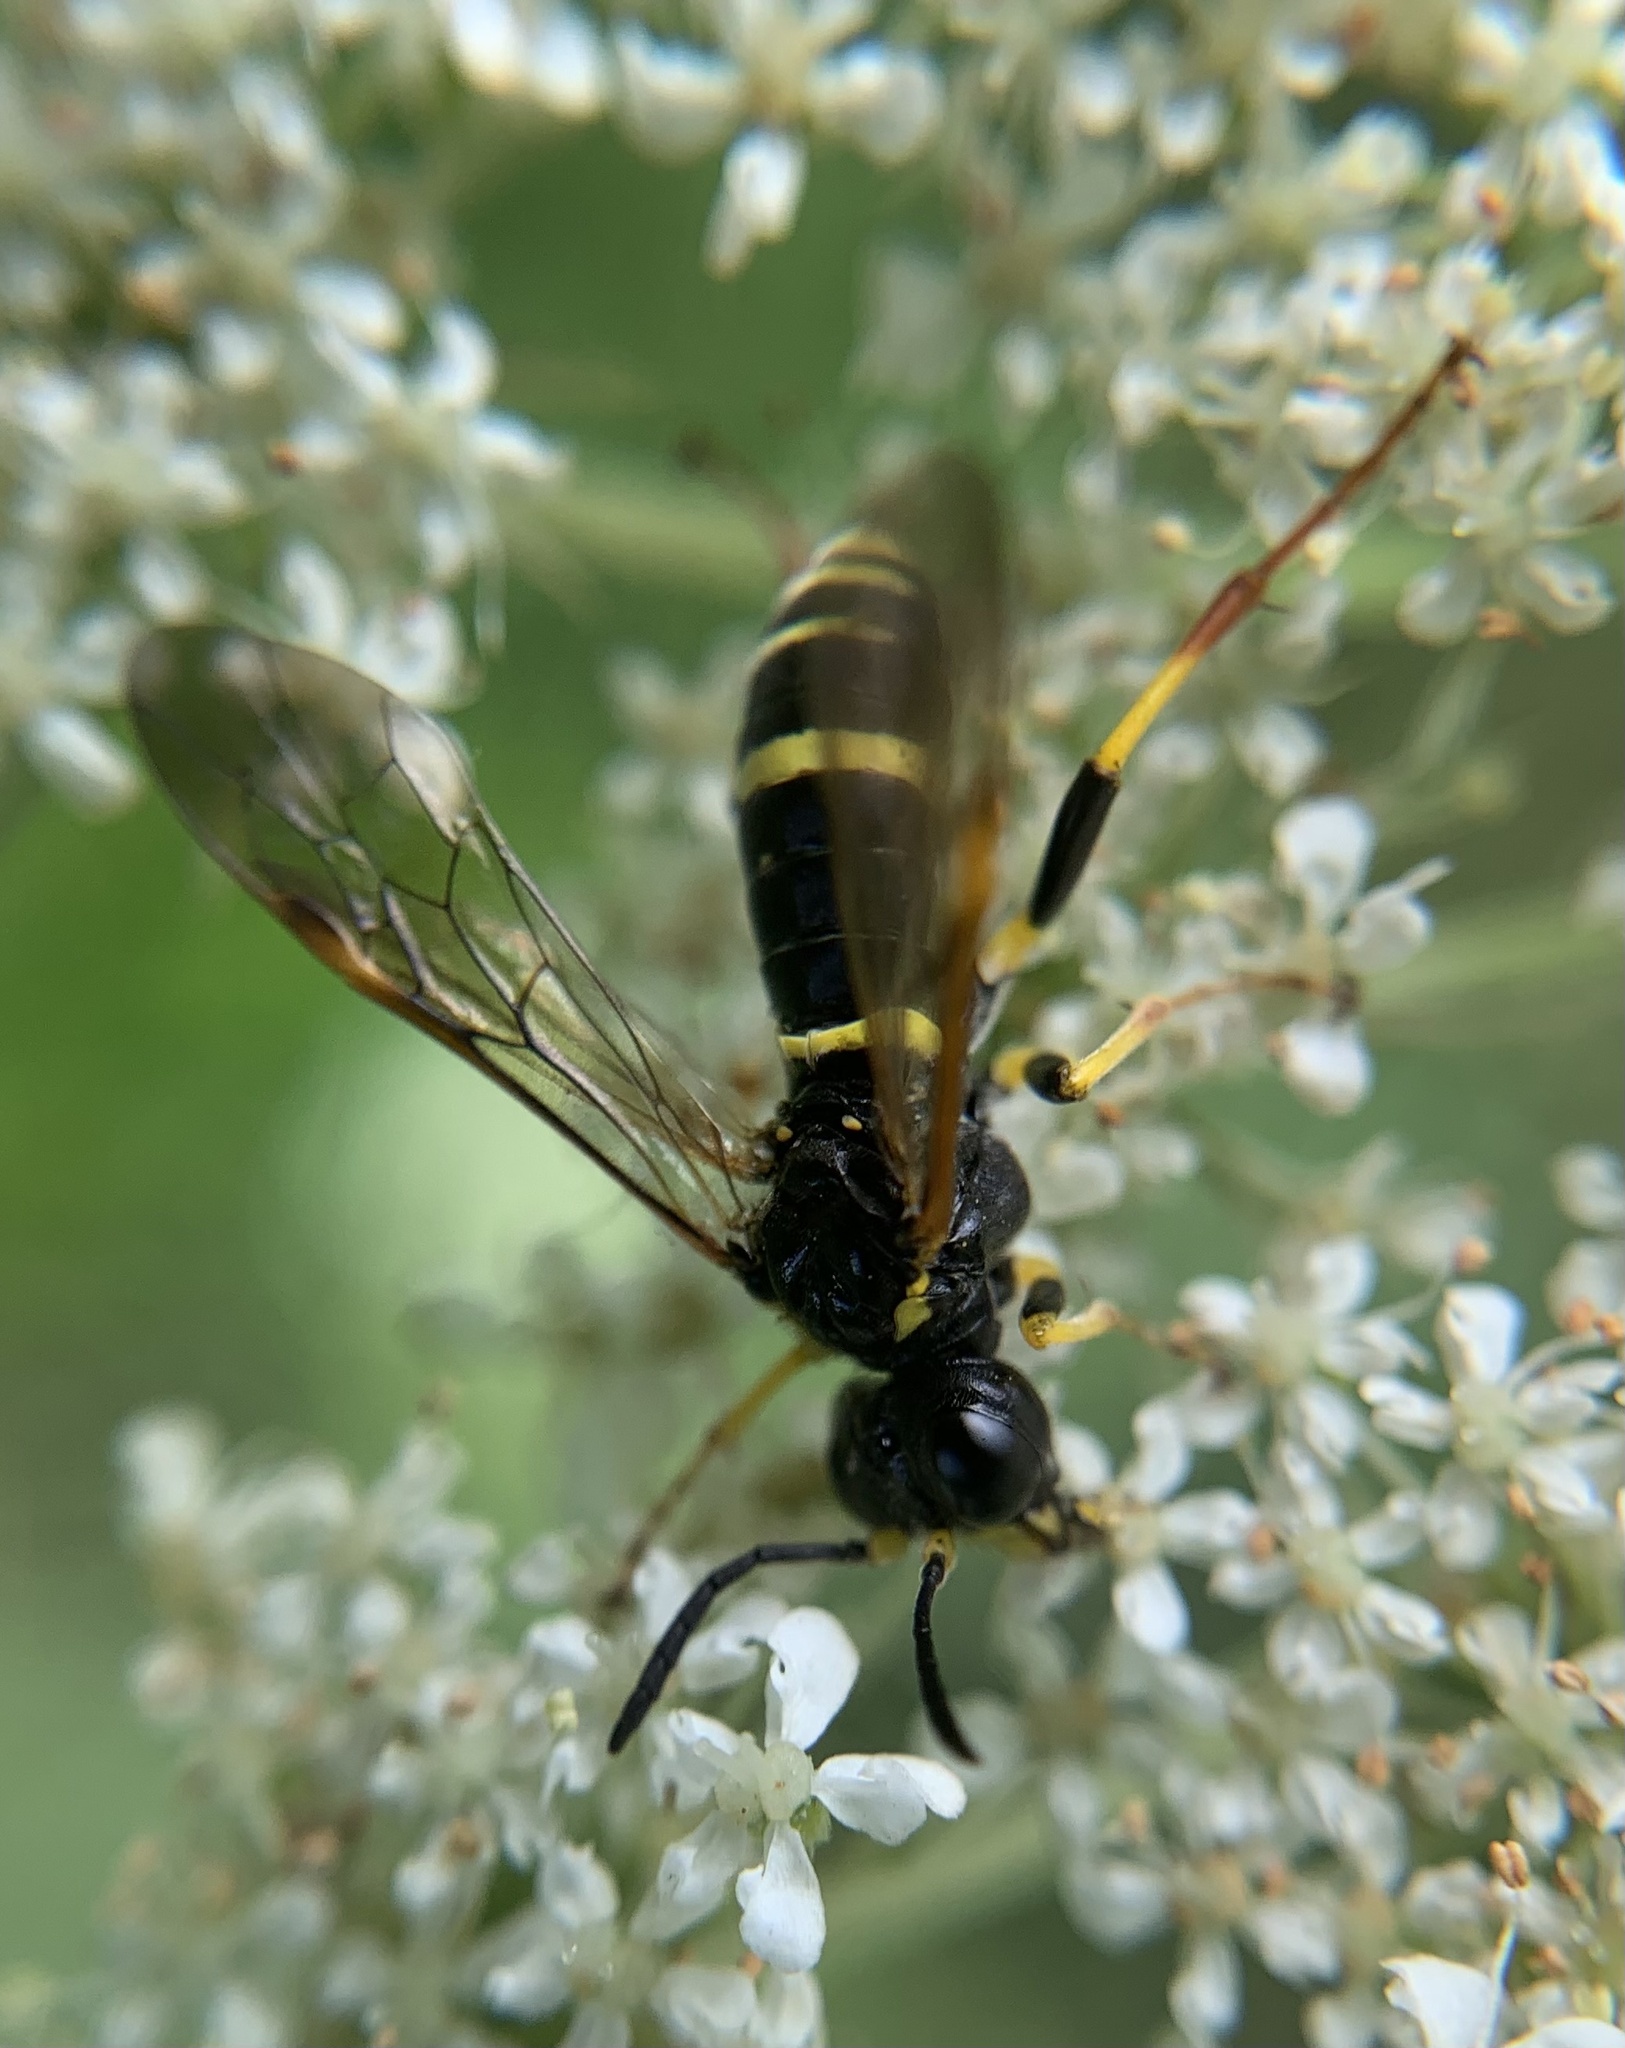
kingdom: Animalia
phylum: Arthropoda
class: Insecta
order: Hymenoptera
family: Tenthredinidae
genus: Tenthredo
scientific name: Tenthredo amoena
